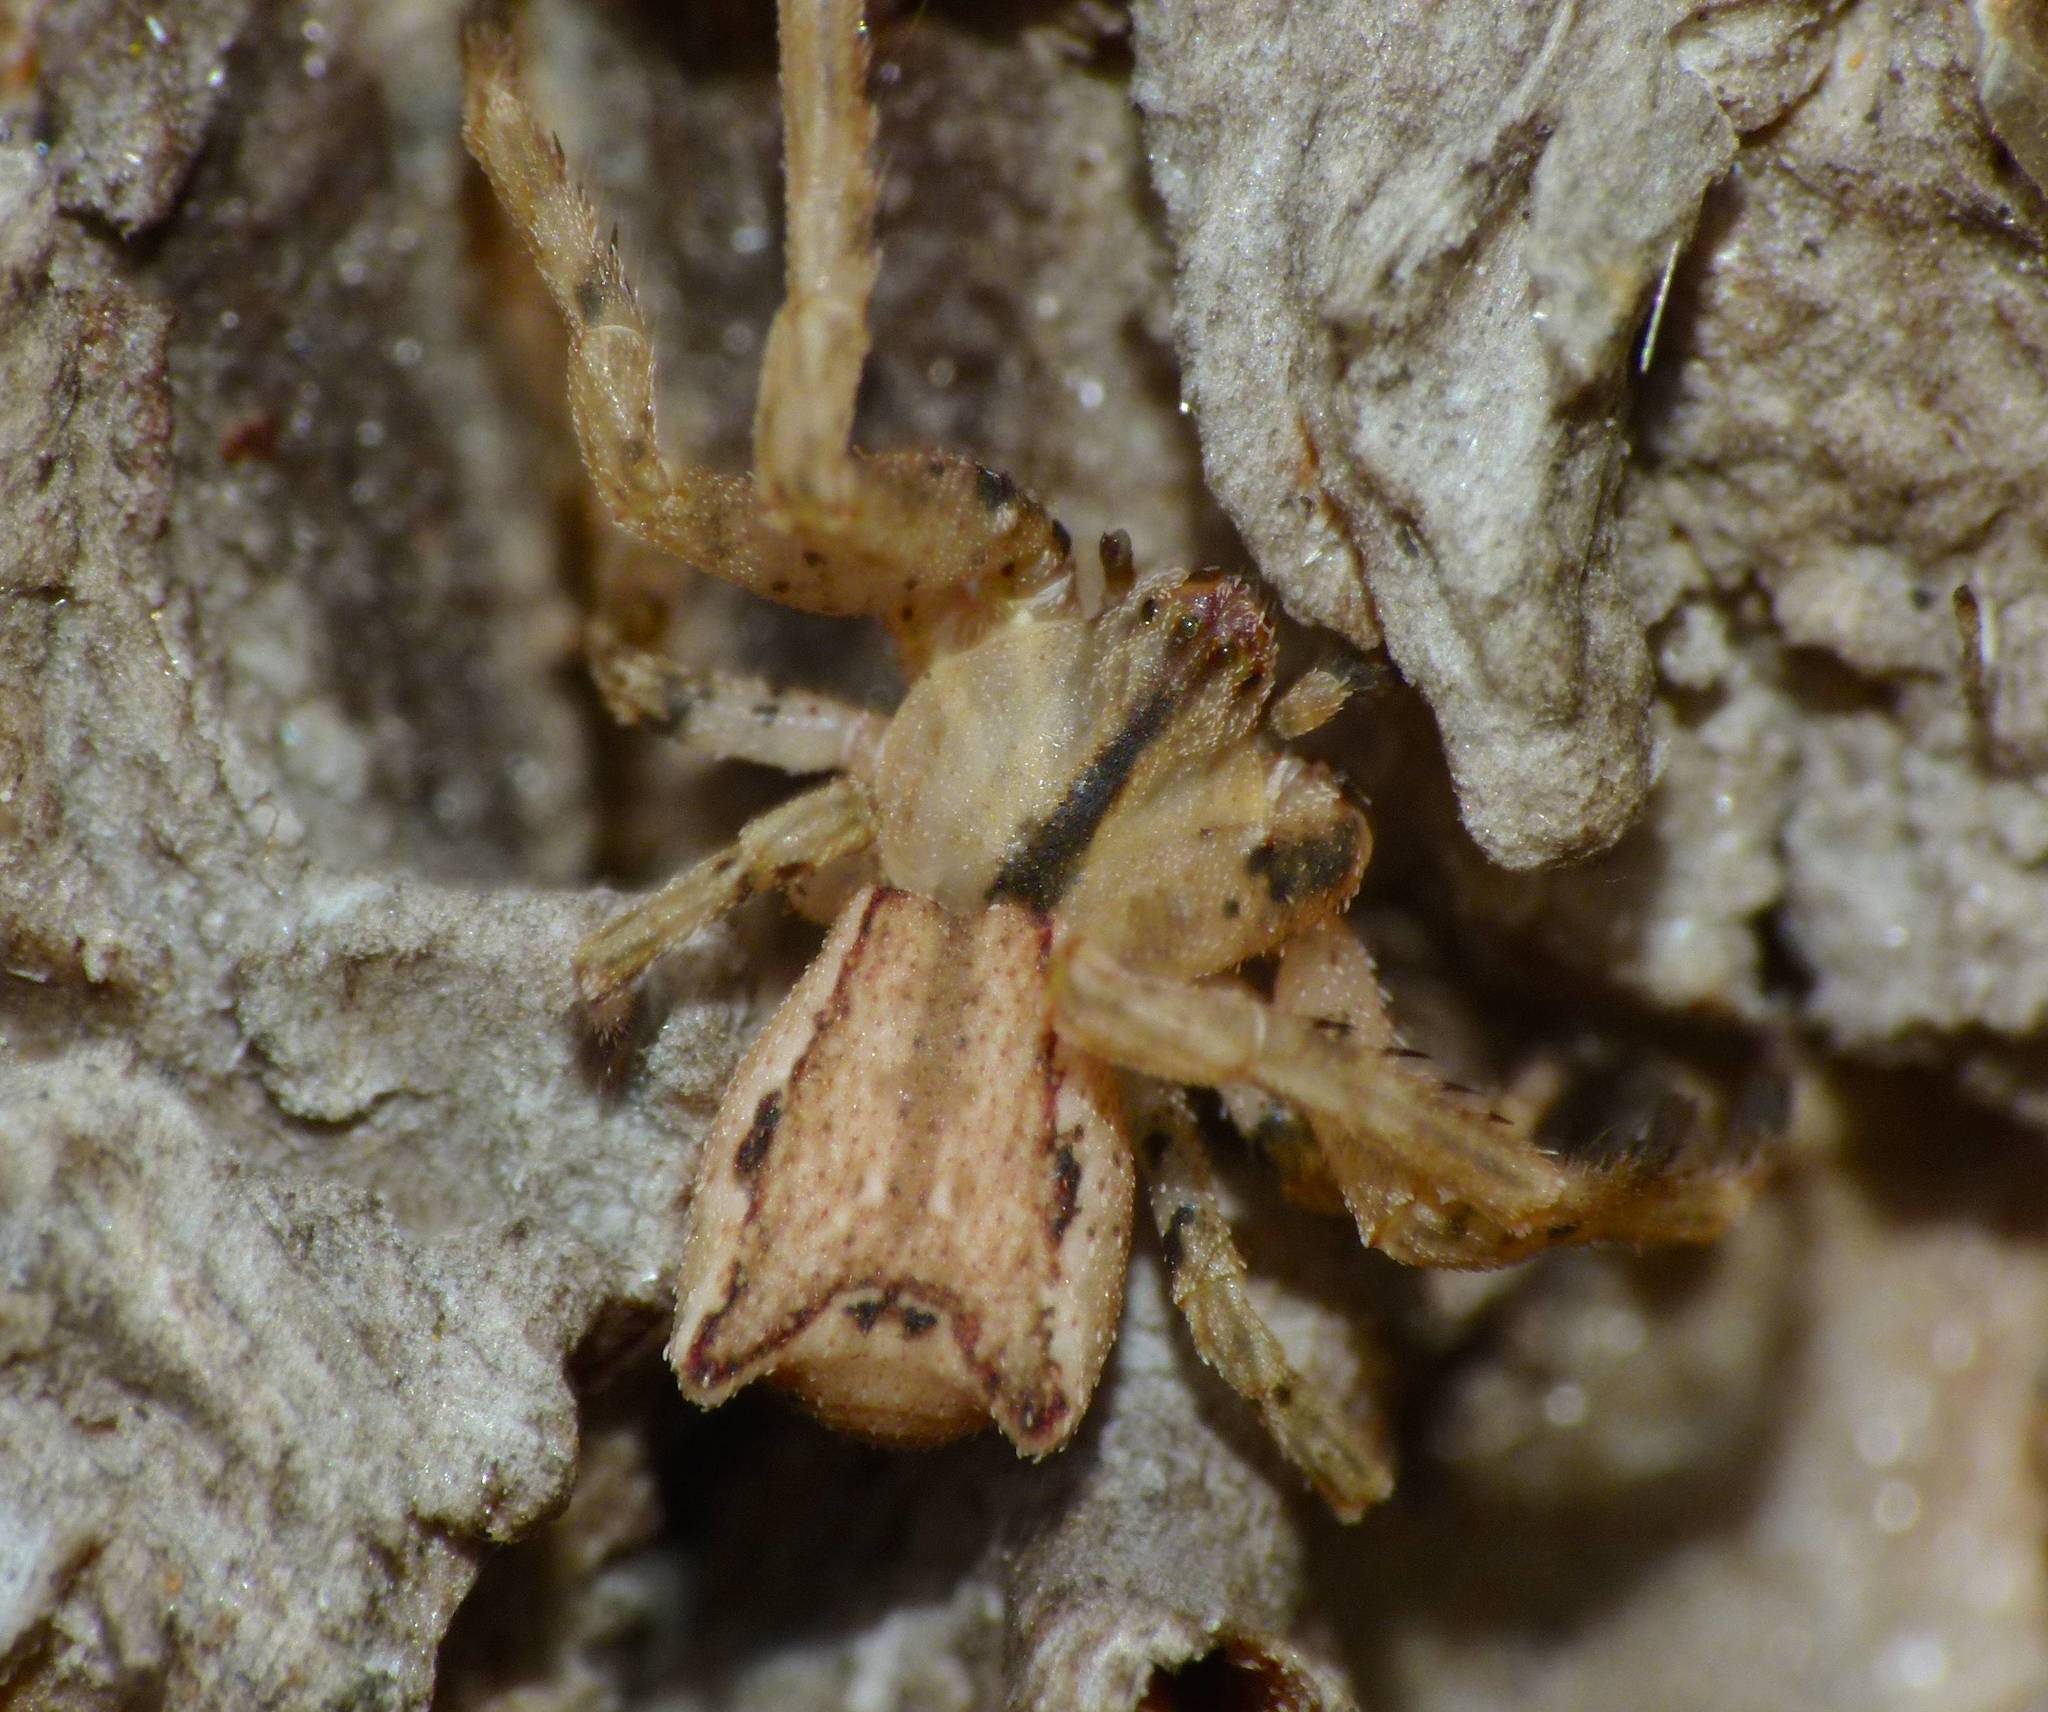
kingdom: Animalia
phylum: Arthropoda
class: Arachnida
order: Araneae
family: Thomisidae
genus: Sidymella
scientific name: Sidymella angulata
